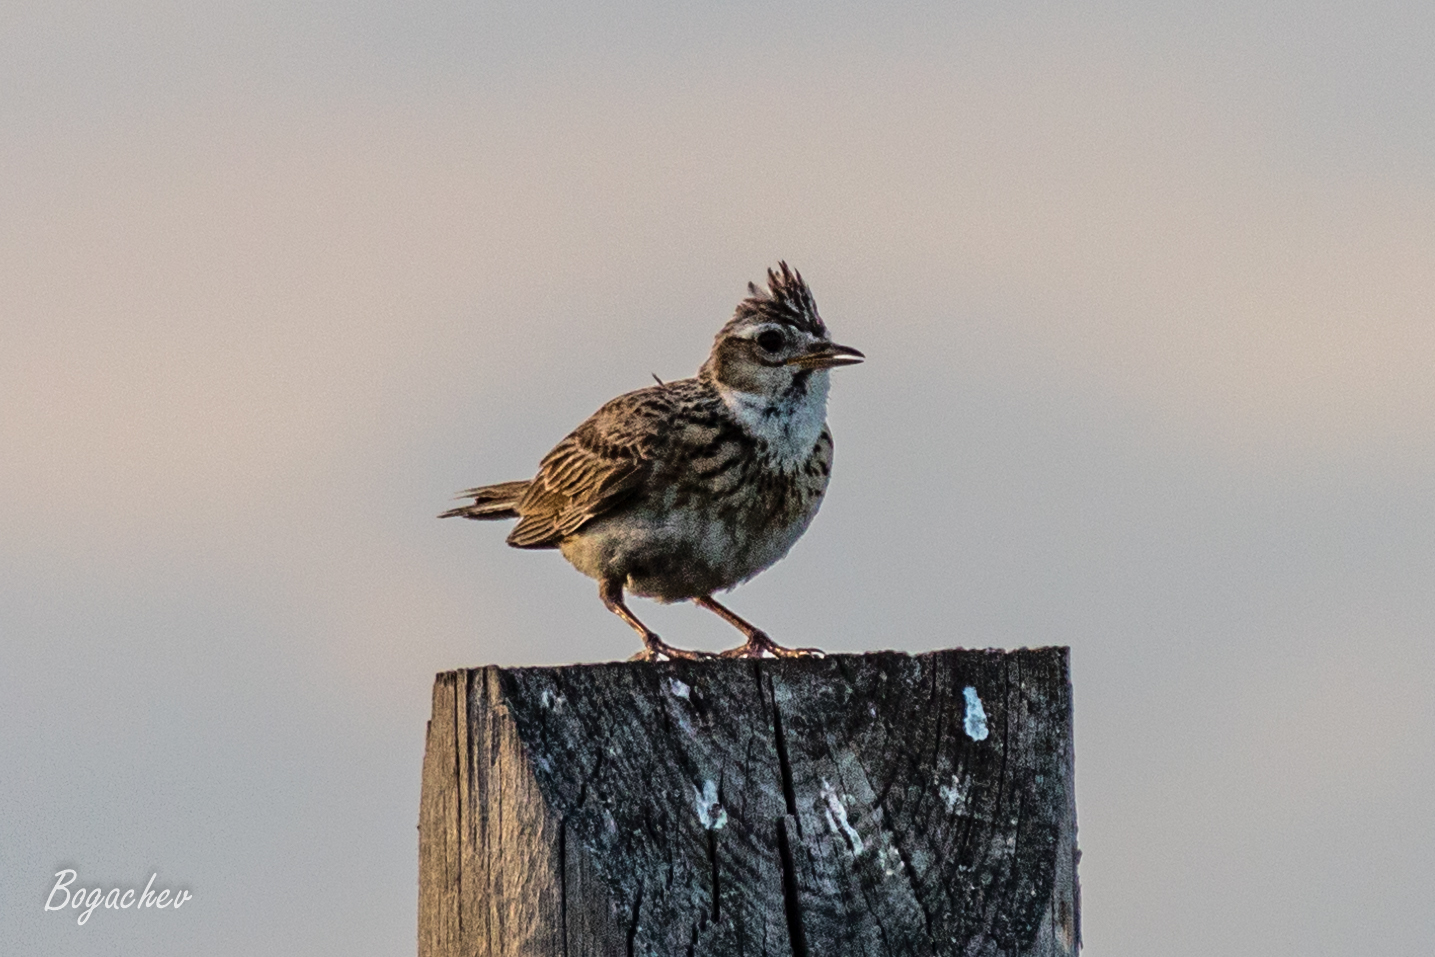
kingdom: Animalia
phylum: Chordata
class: Aves
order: Passeriformes
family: Alaudidae
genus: Alauda
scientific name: Alauda arvensis
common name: Eurasian skylark
